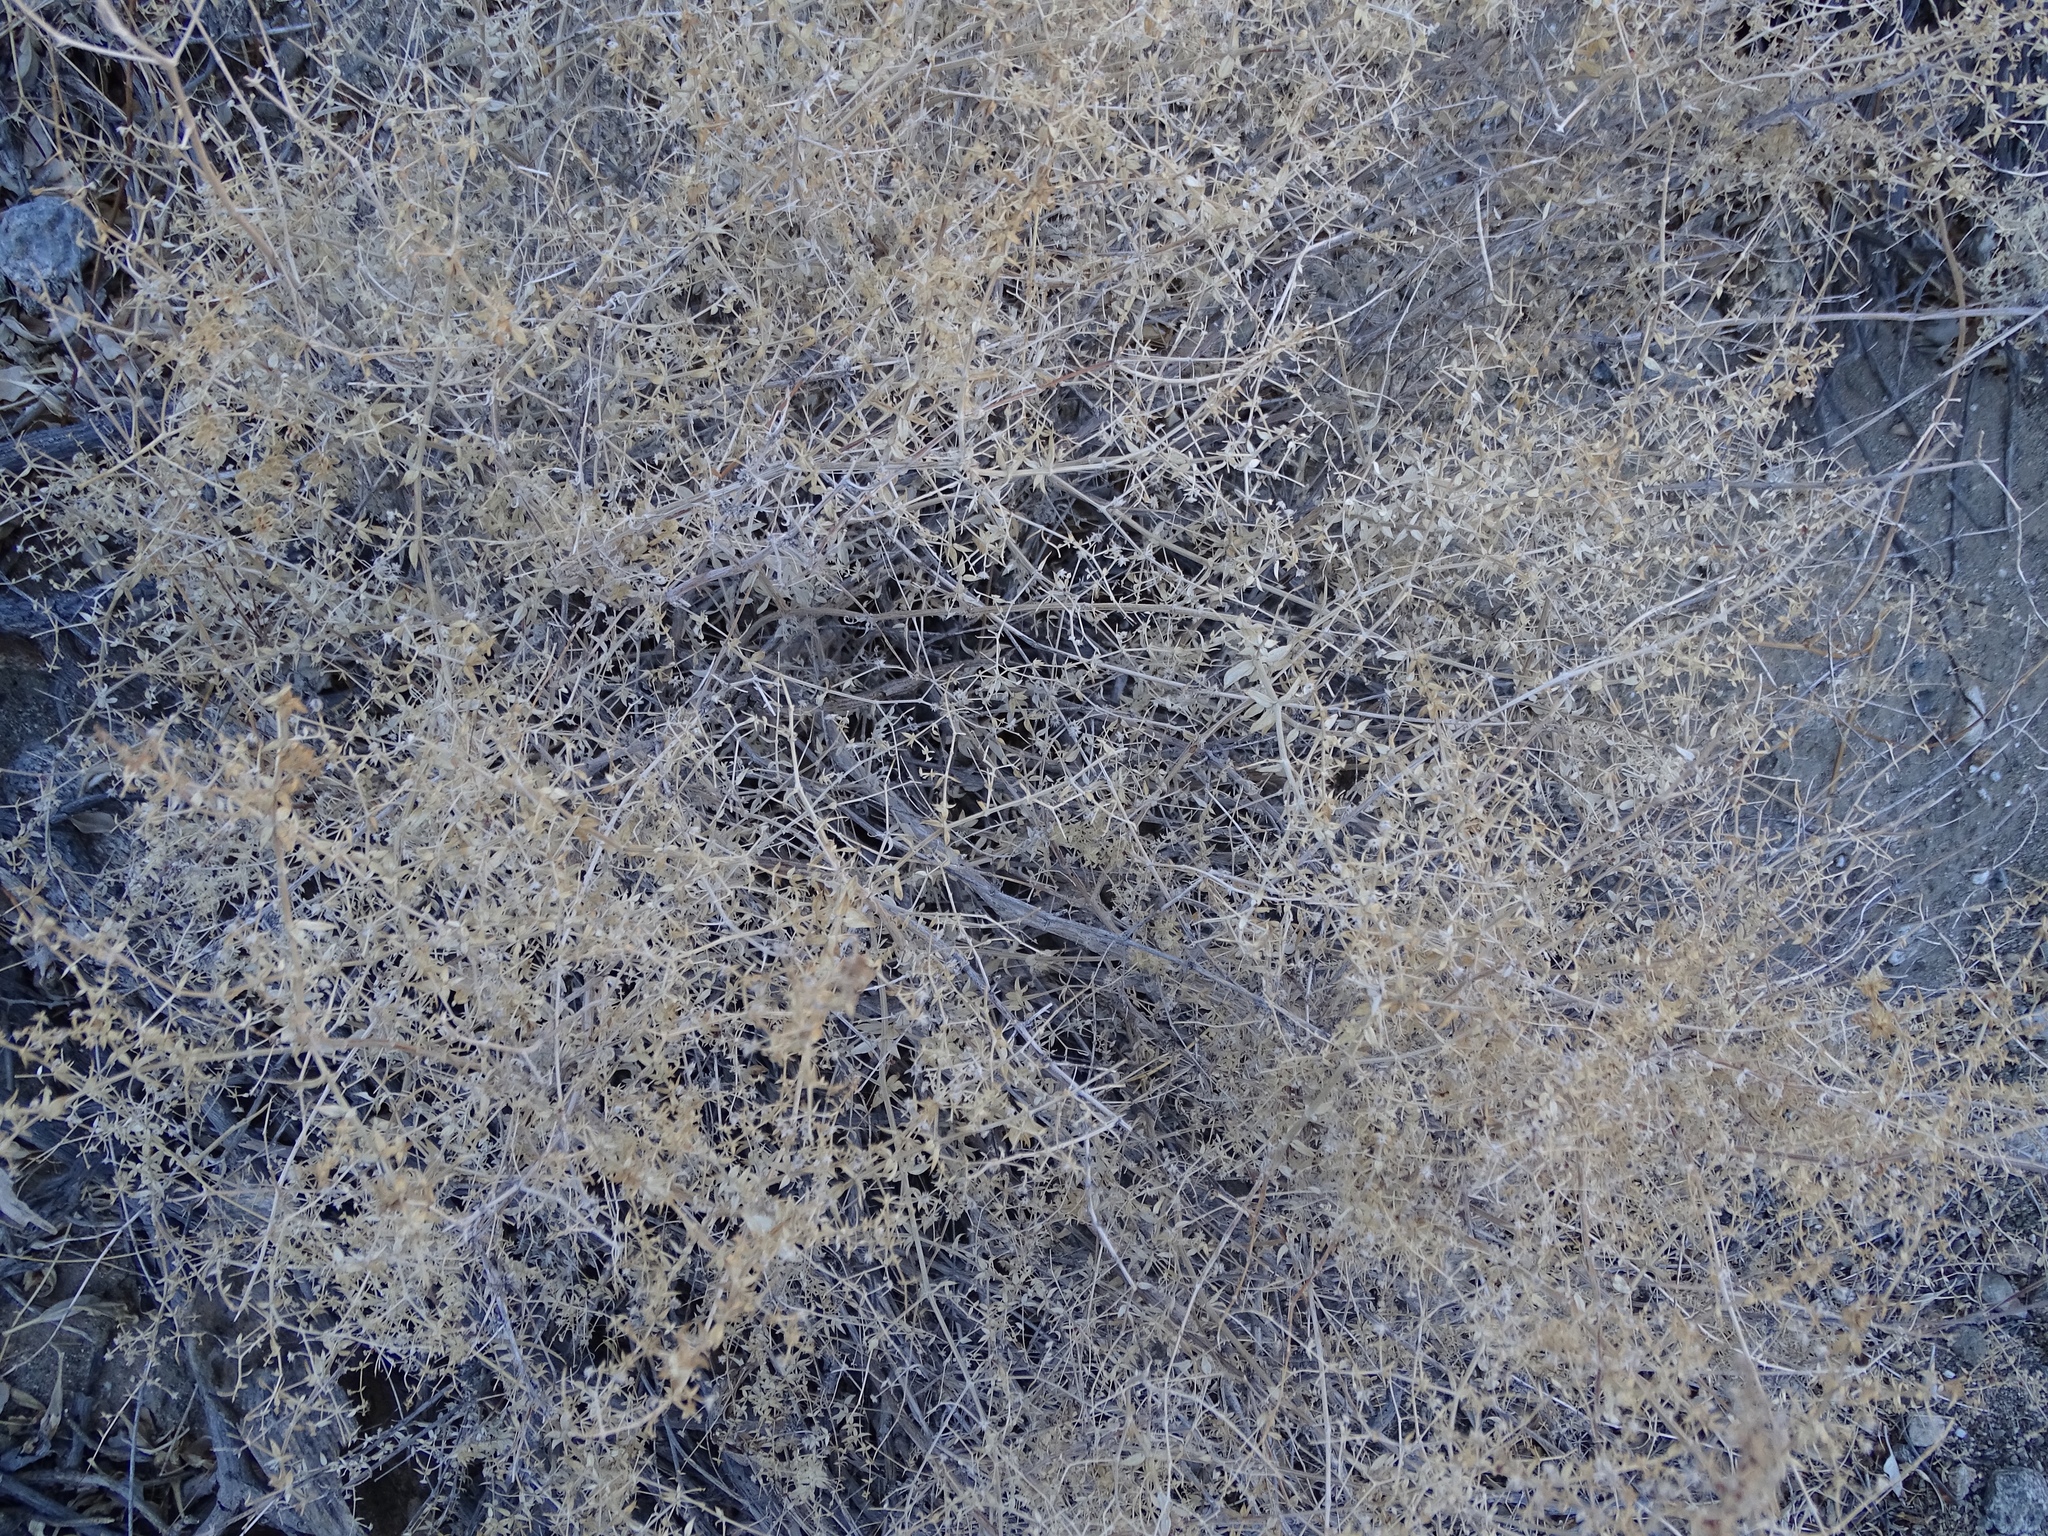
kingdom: Plantae
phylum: Tracheophyta
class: Magnoliopsida
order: Gentianales
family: Rubiaceae
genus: Galium
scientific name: Galium stellatum
